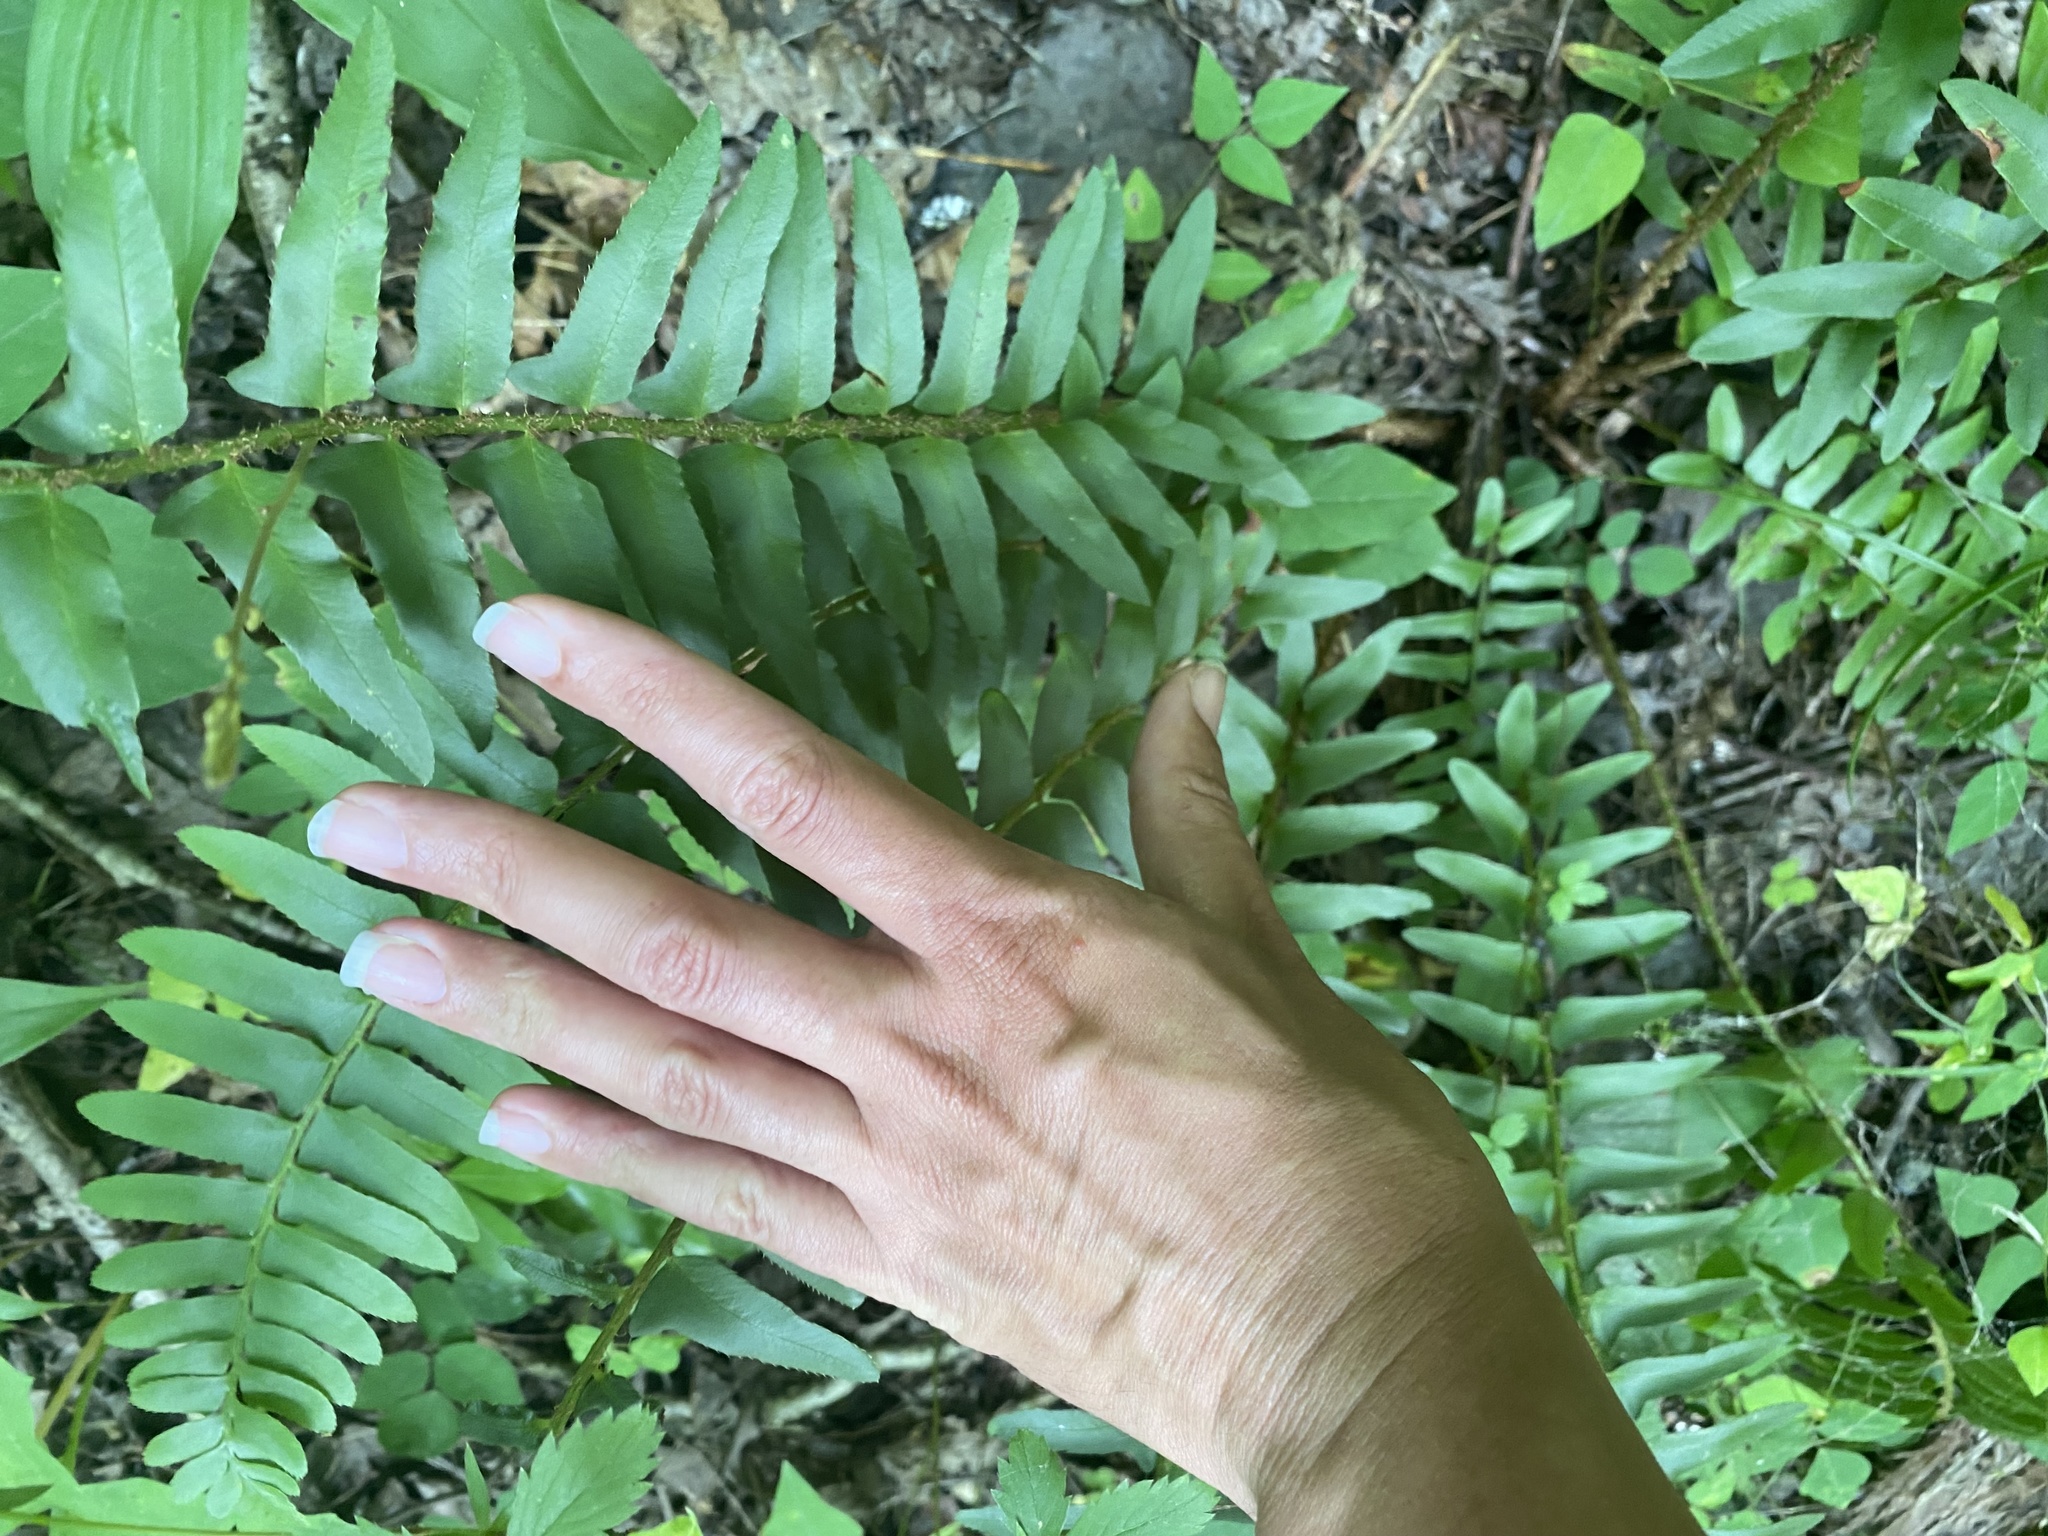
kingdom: Plantae
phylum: Tracheophyta
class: Polypodiopsida
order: Polypodiales
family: Dryopteridaceae
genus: Polystichum
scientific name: Polystichum acrostichoides
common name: Christmas fern
